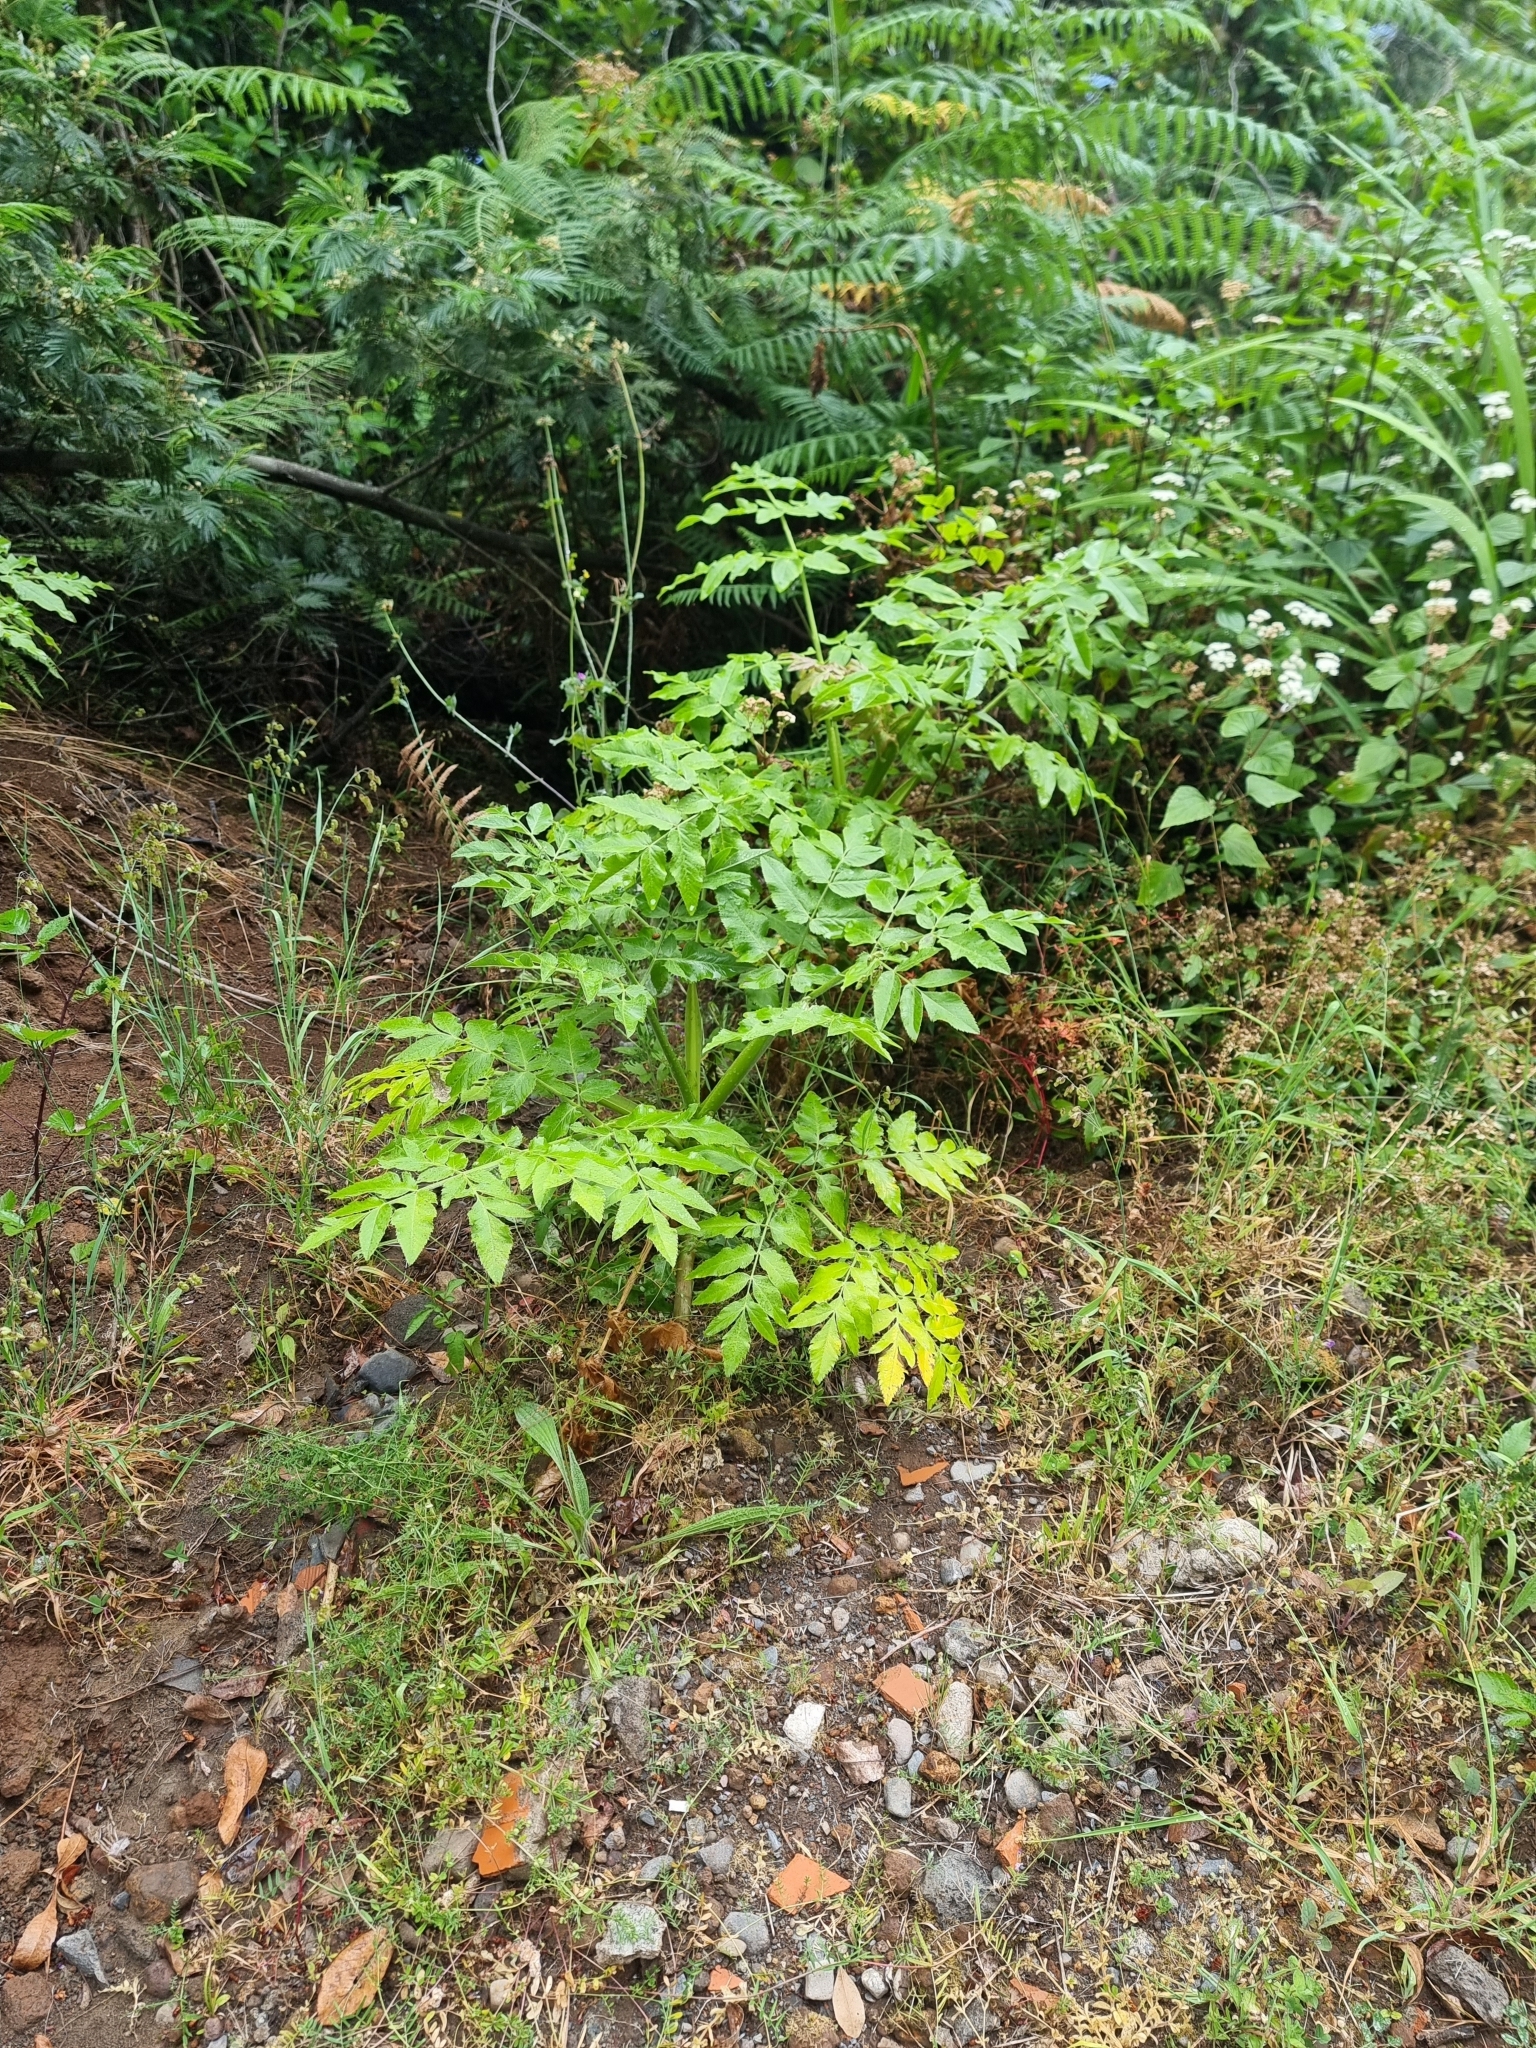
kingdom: Plantae
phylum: Tracheophyta
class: Magnoliopsida
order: Apiales
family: Apiaceae
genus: Daucus
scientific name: Daucus decipiens
